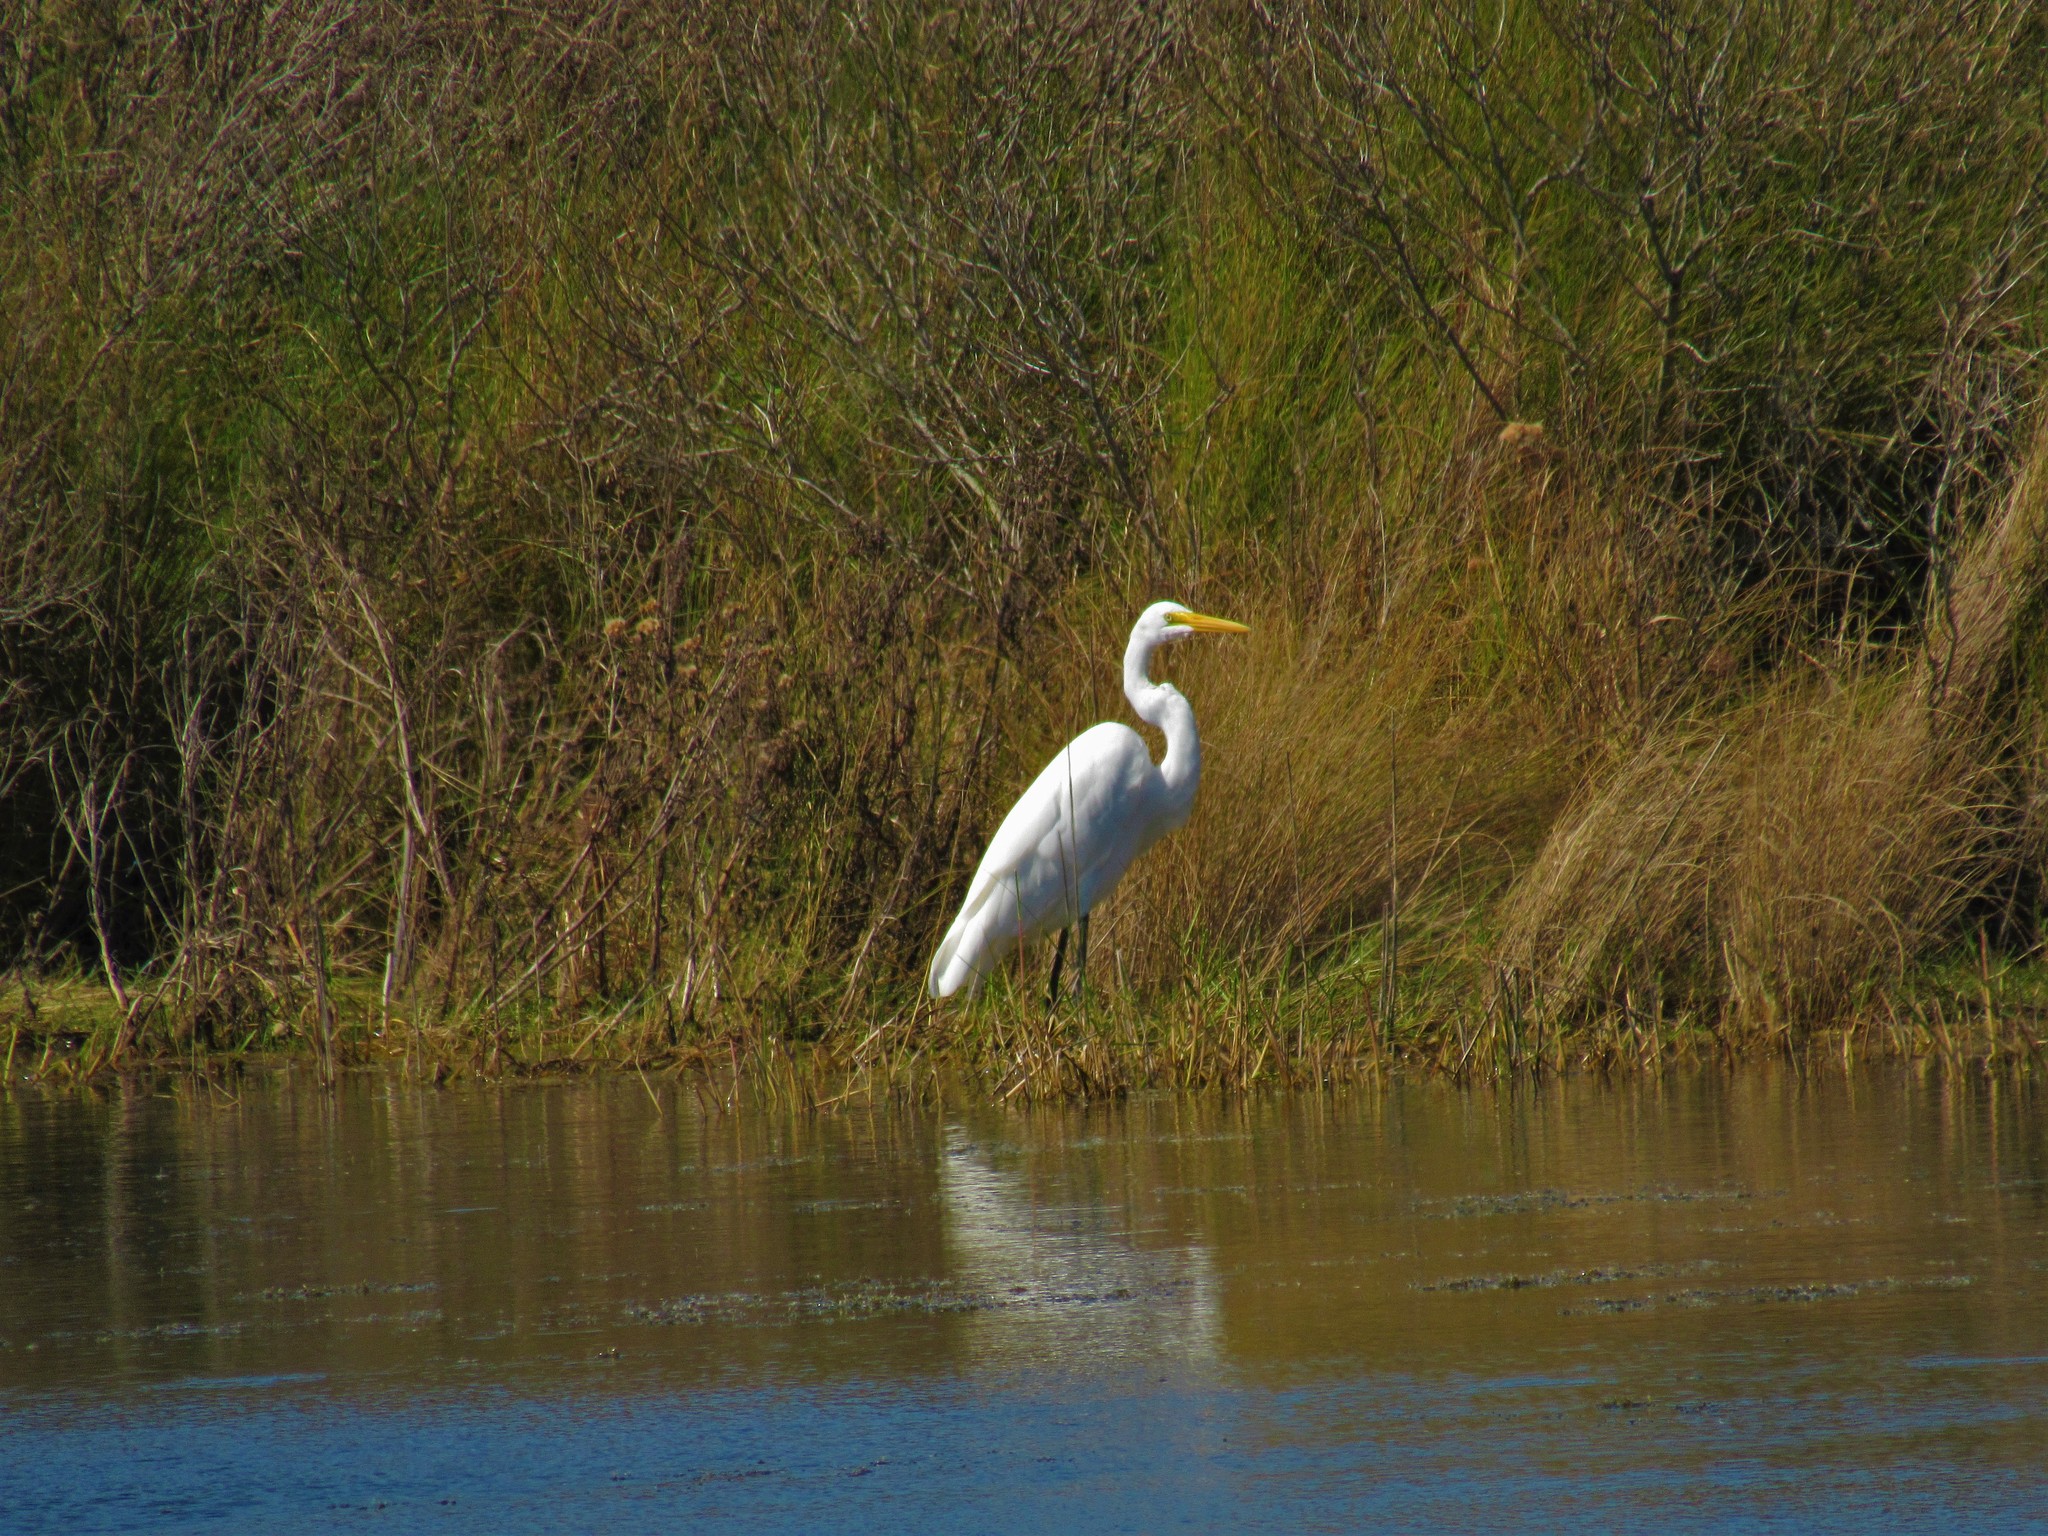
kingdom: Animalia
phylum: Chordata
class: Aves
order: Pelecaniformes
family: Ardeidae
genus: Ardea
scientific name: Ardea alba
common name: Great egret
